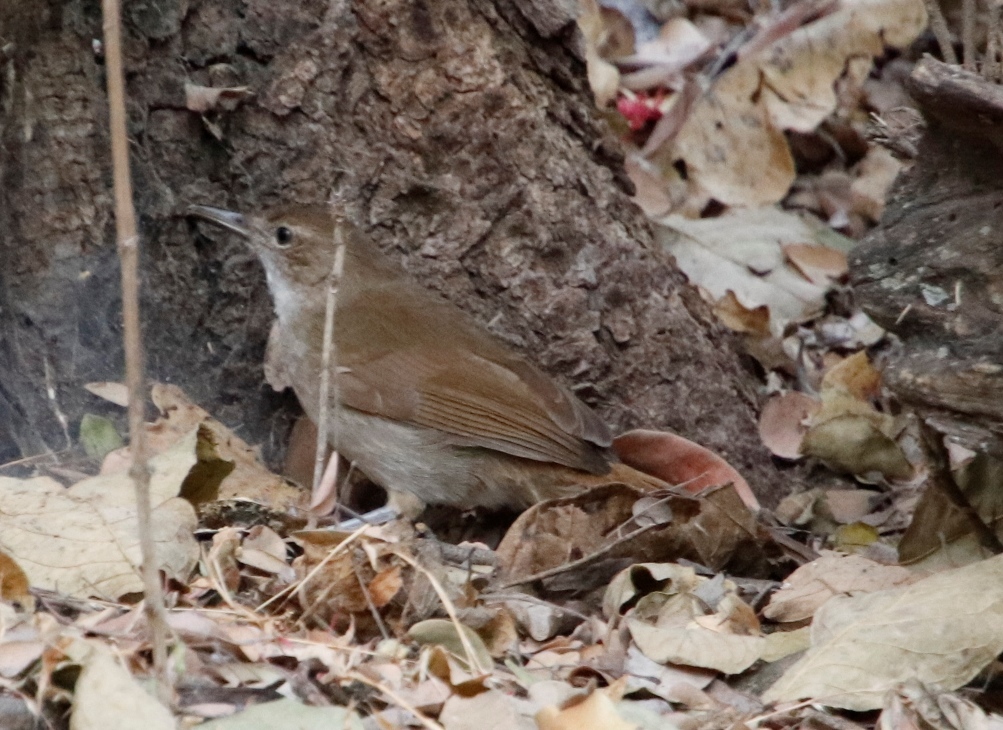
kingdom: Animalia
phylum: Chordata
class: Aves
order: Passeriformes
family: Pycnonotidae
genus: Phyllastrephus
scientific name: Phyllastrephus terrestris
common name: Terrestrial brownbul
